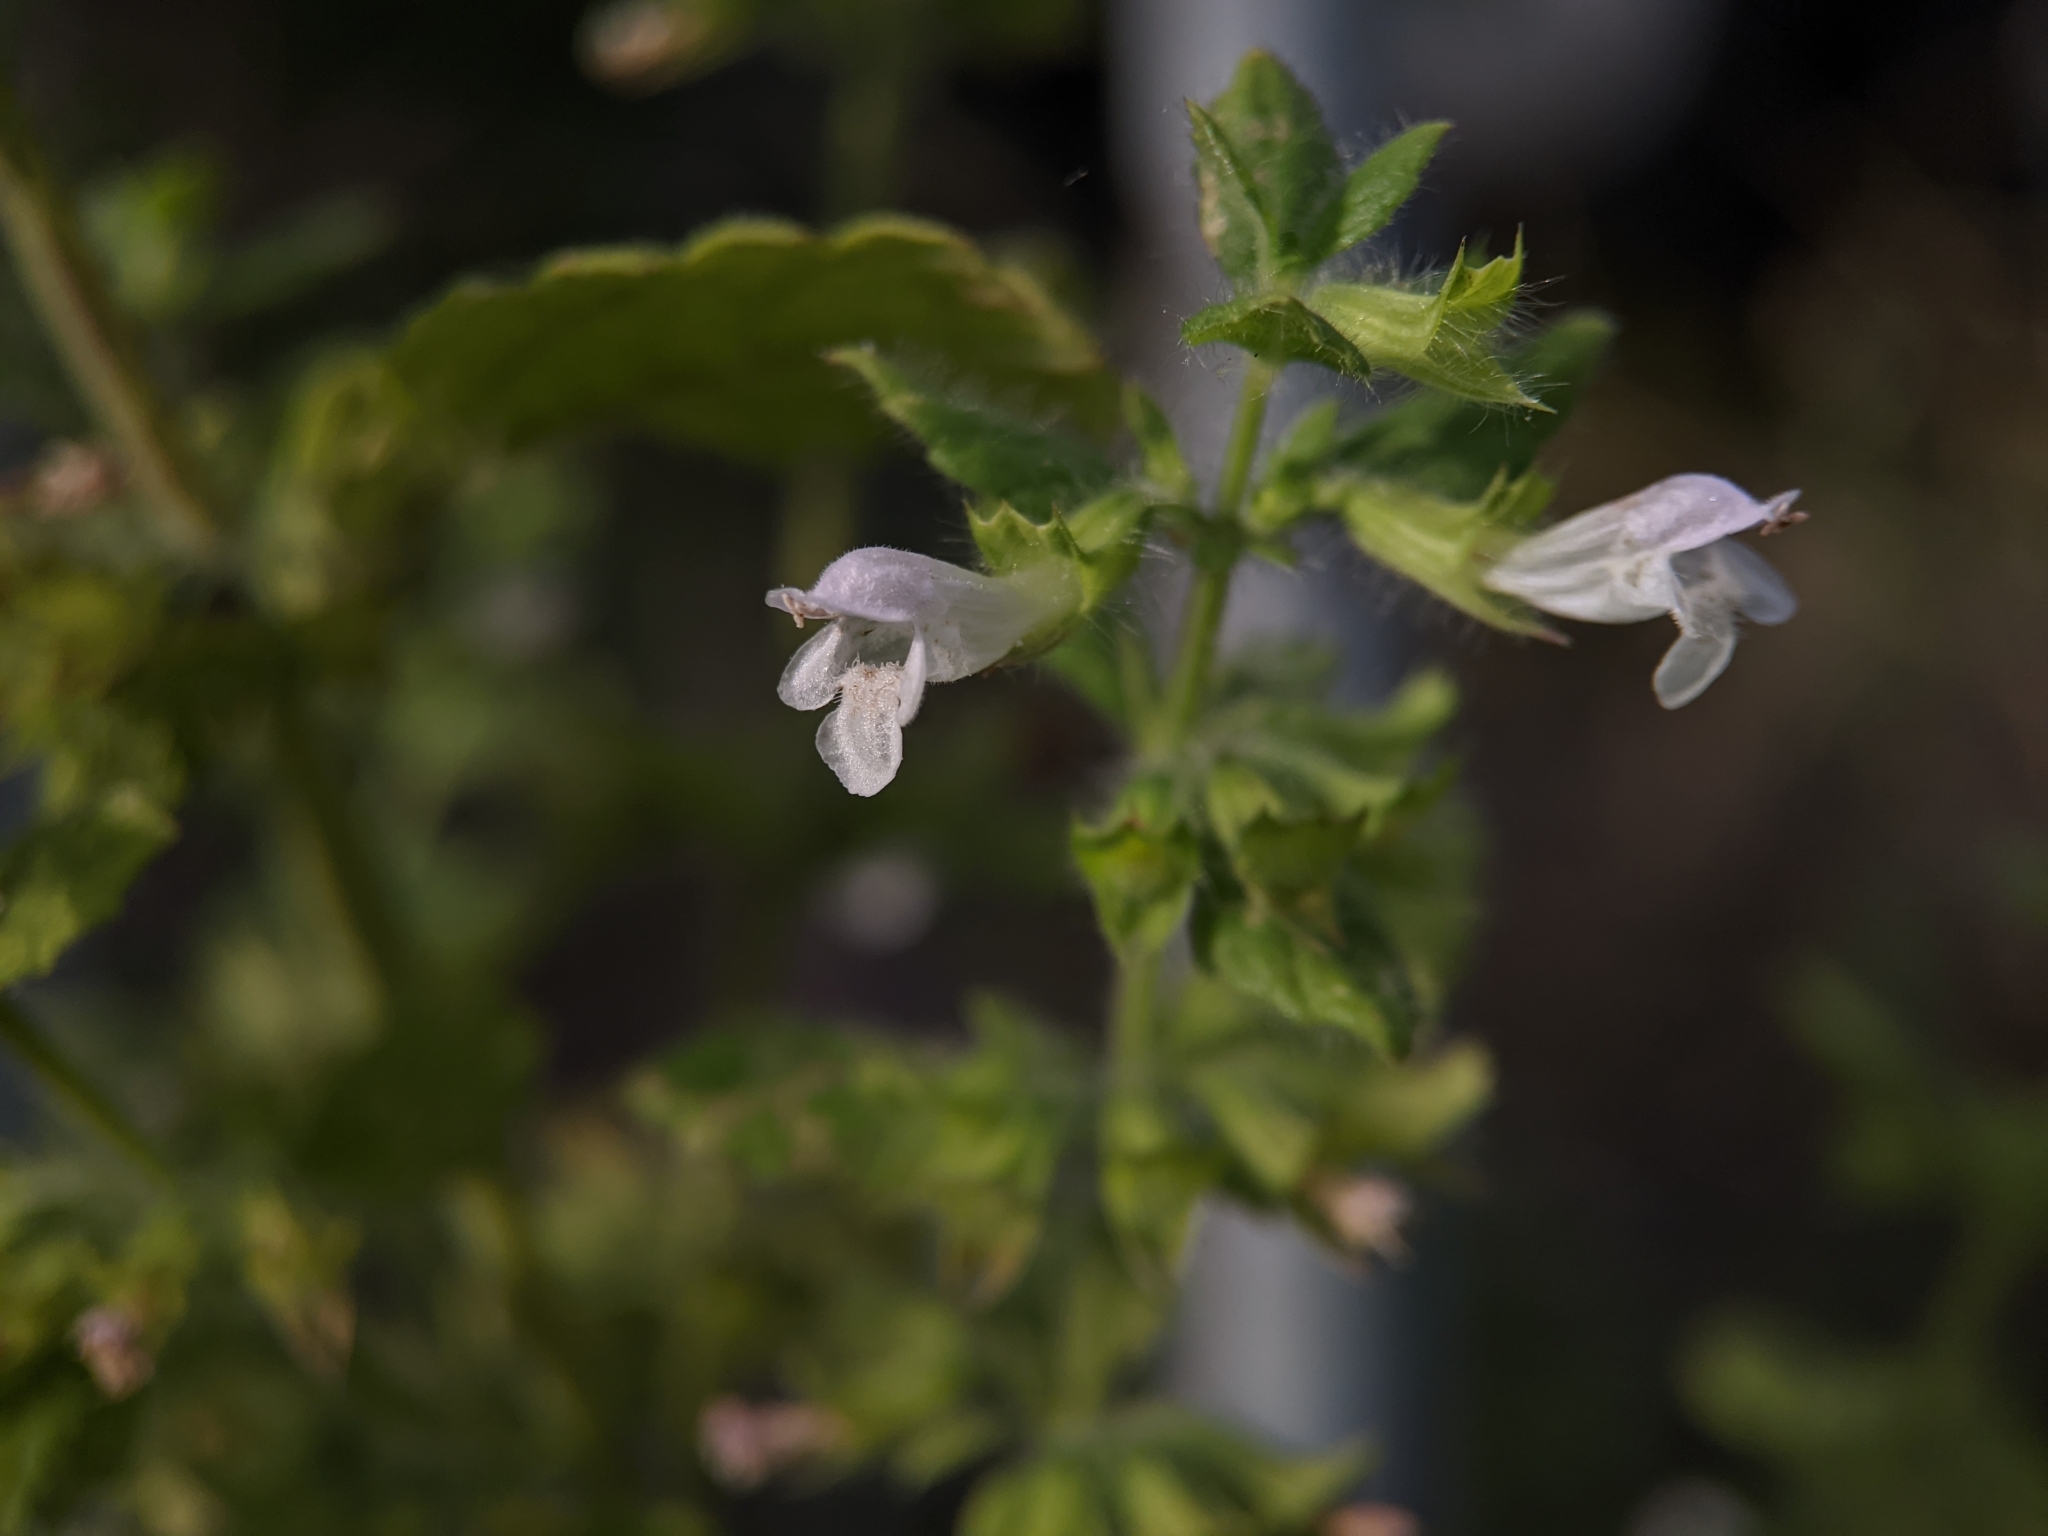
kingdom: Plantae
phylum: Tracheophyta
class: Magnoliopsida
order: Lamiales
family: Lamiaceae
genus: Melissa
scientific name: Melissa officinalis
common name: Balm
